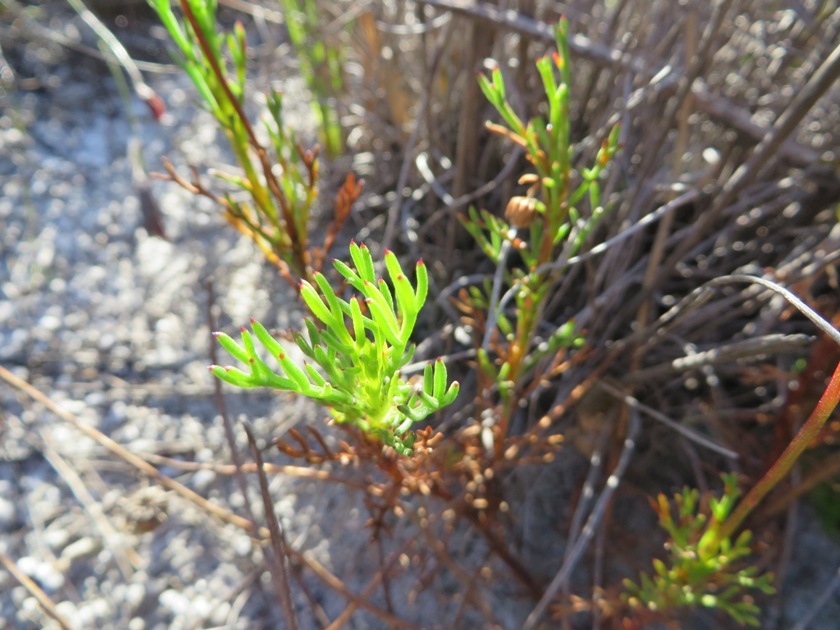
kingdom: Plantae
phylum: Tracheophyta
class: Magnoliopsida
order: Asterales
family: Asteraceae
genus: Ursinia
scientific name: Ursinia paleacea
